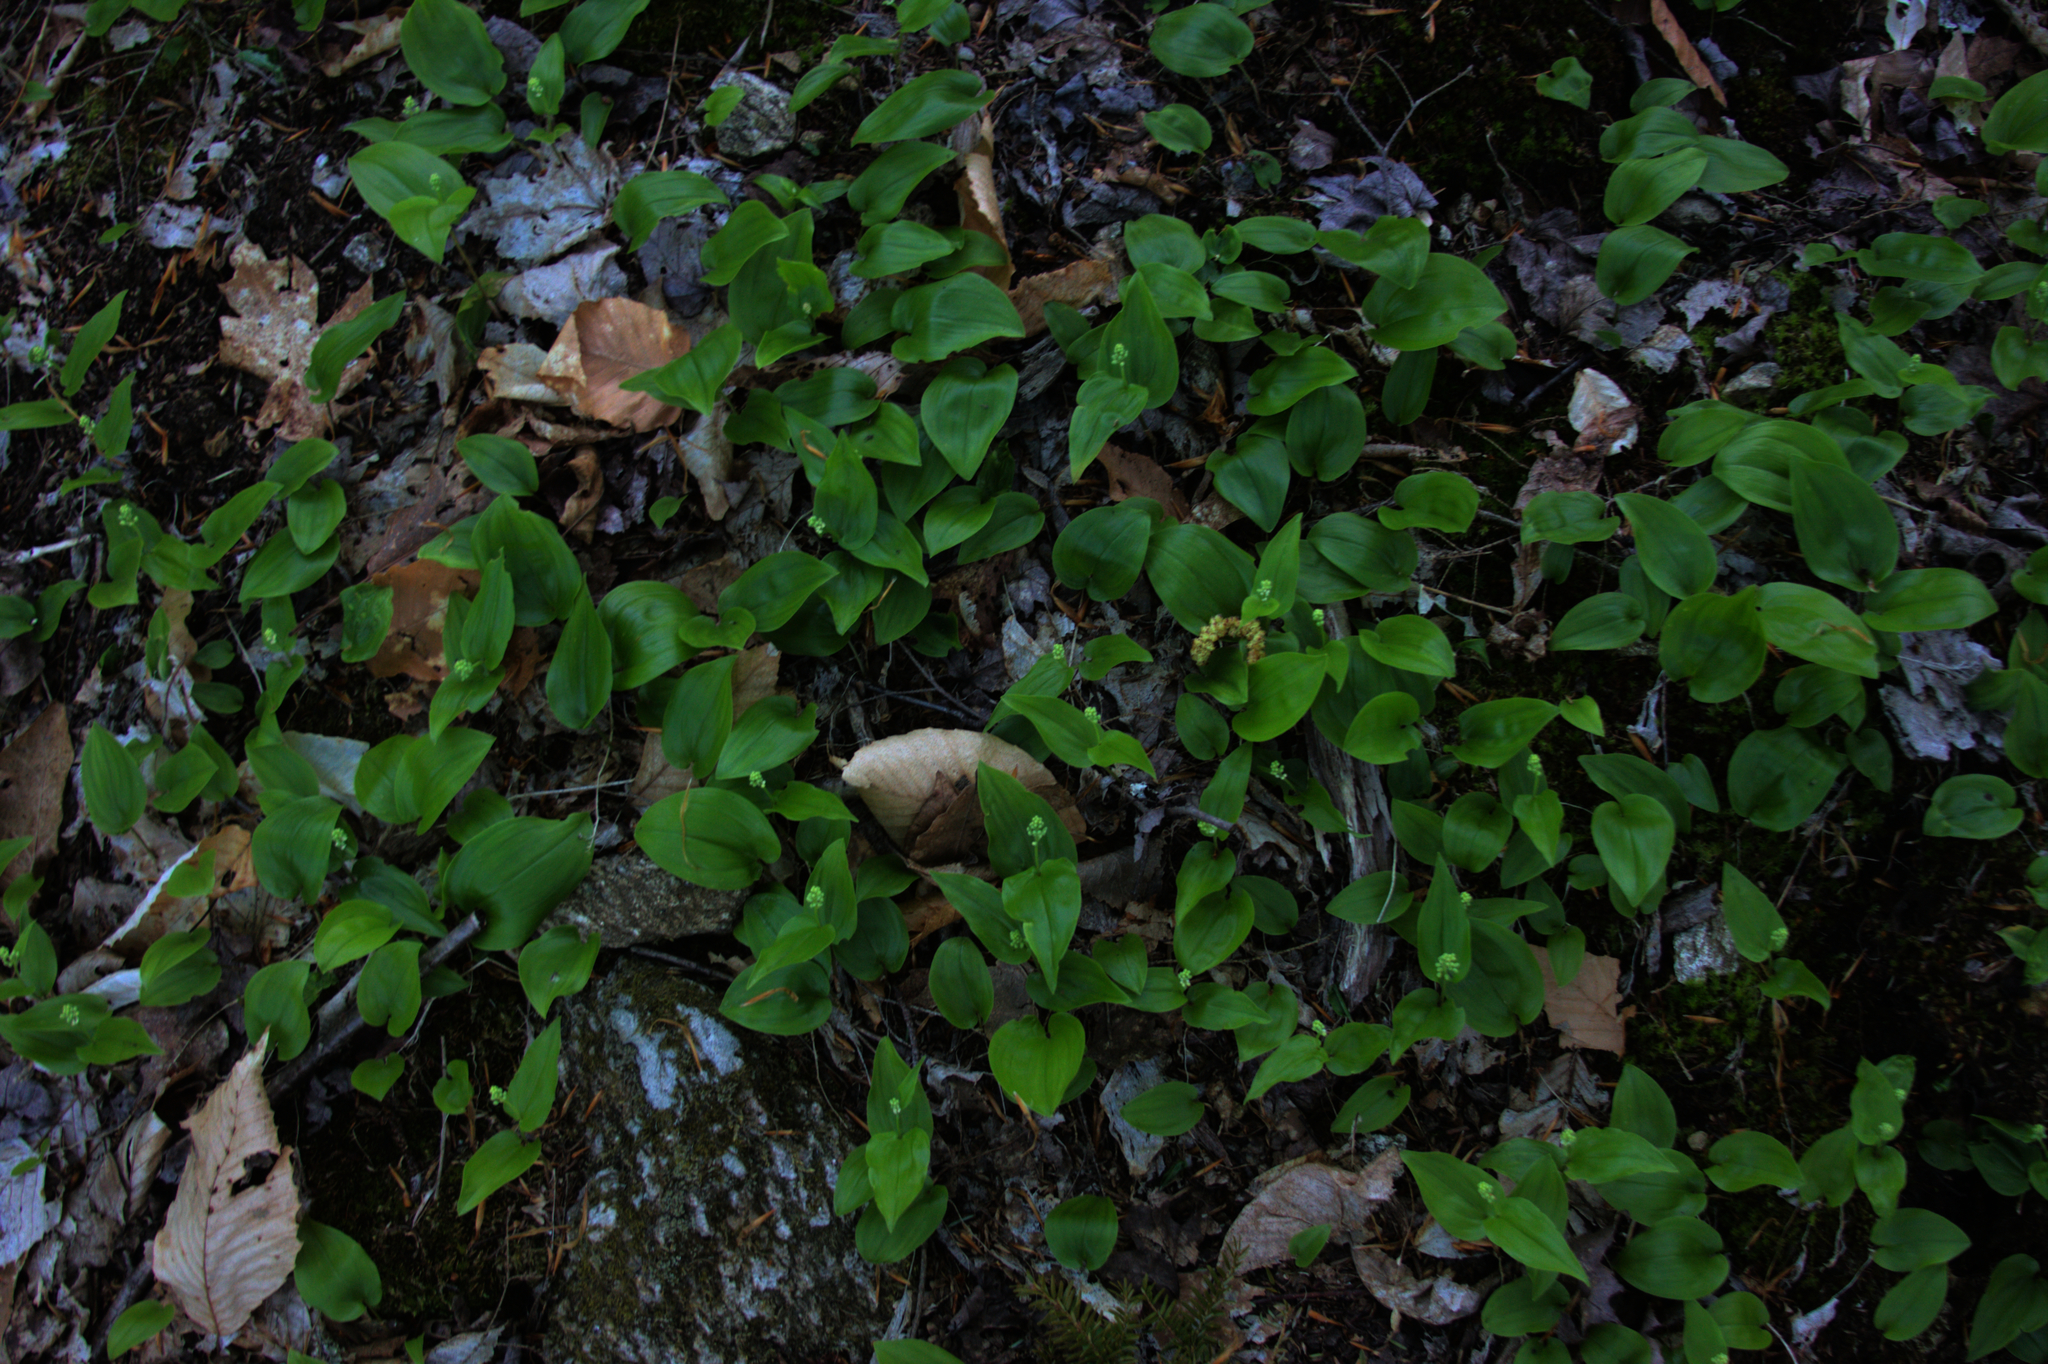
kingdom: Plantae
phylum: Tracheophyta
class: Liliopsida
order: Asparagales
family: Asparagaceae
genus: Maianthemum
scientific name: Maianthemum canadense
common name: False lily-of-the-valley
